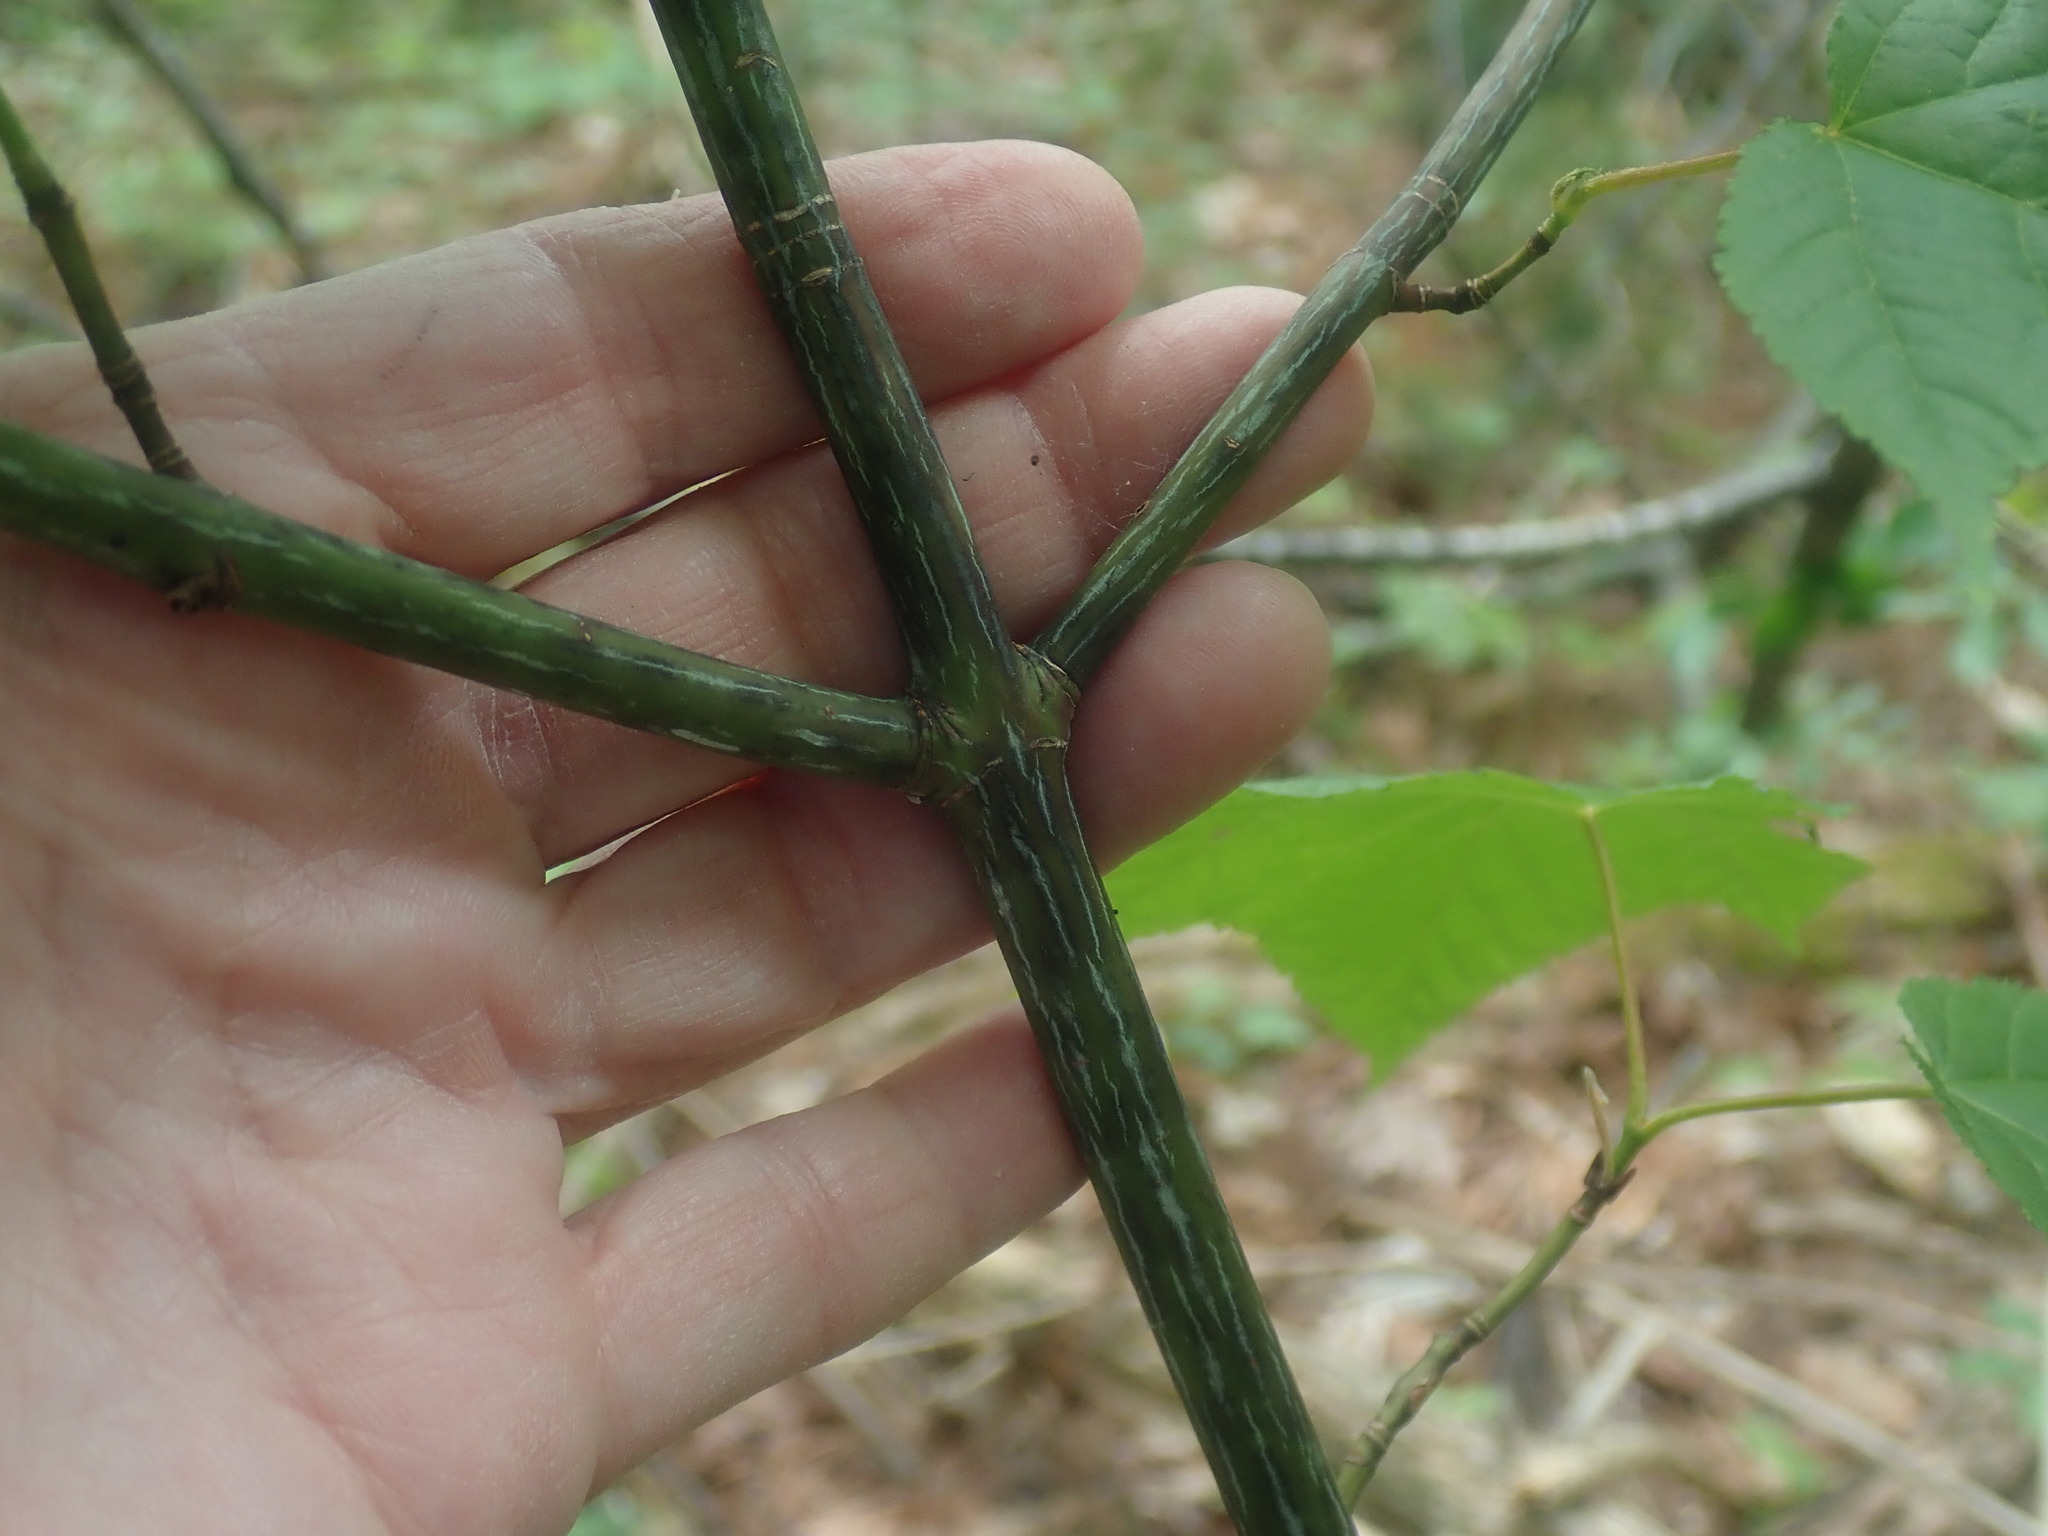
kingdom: Plantae
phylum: Tracheophyta
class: Magnoliopsida
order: Sapindales
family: Sapindaceae
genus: Acer
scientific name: Acer pensylvanicum
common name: Moosewood
